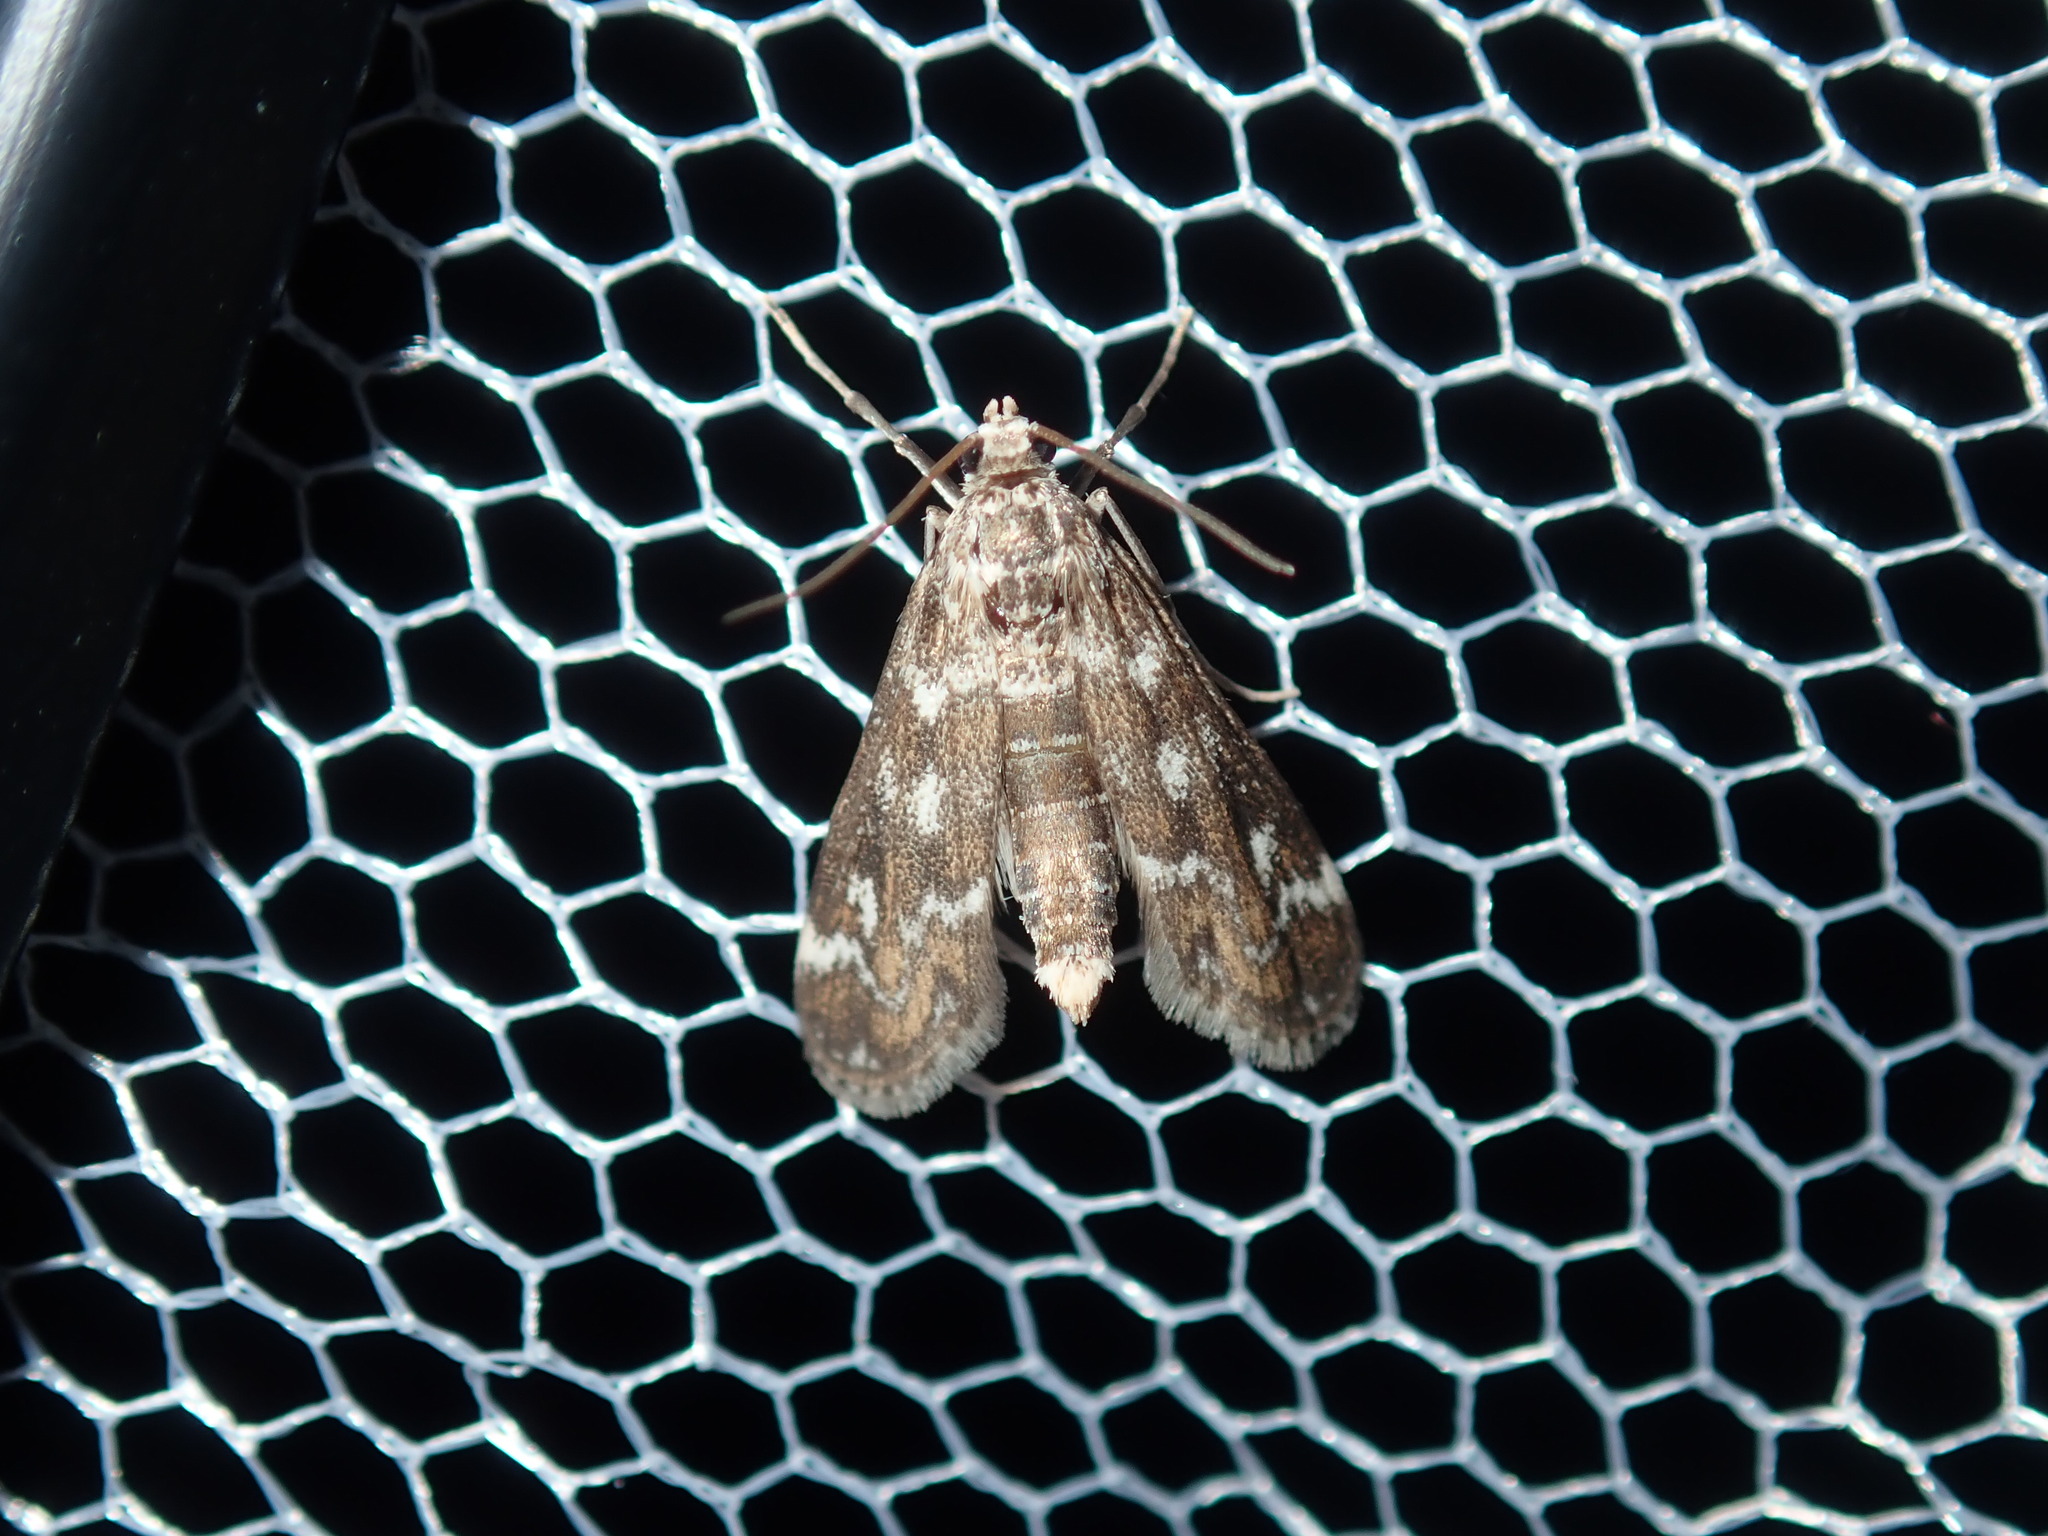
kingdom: Animalia
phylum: Arthropoda
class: Insecta
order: Lepidoptera
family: Crambidae
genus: Hygraula
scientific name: Hygraula nitens
